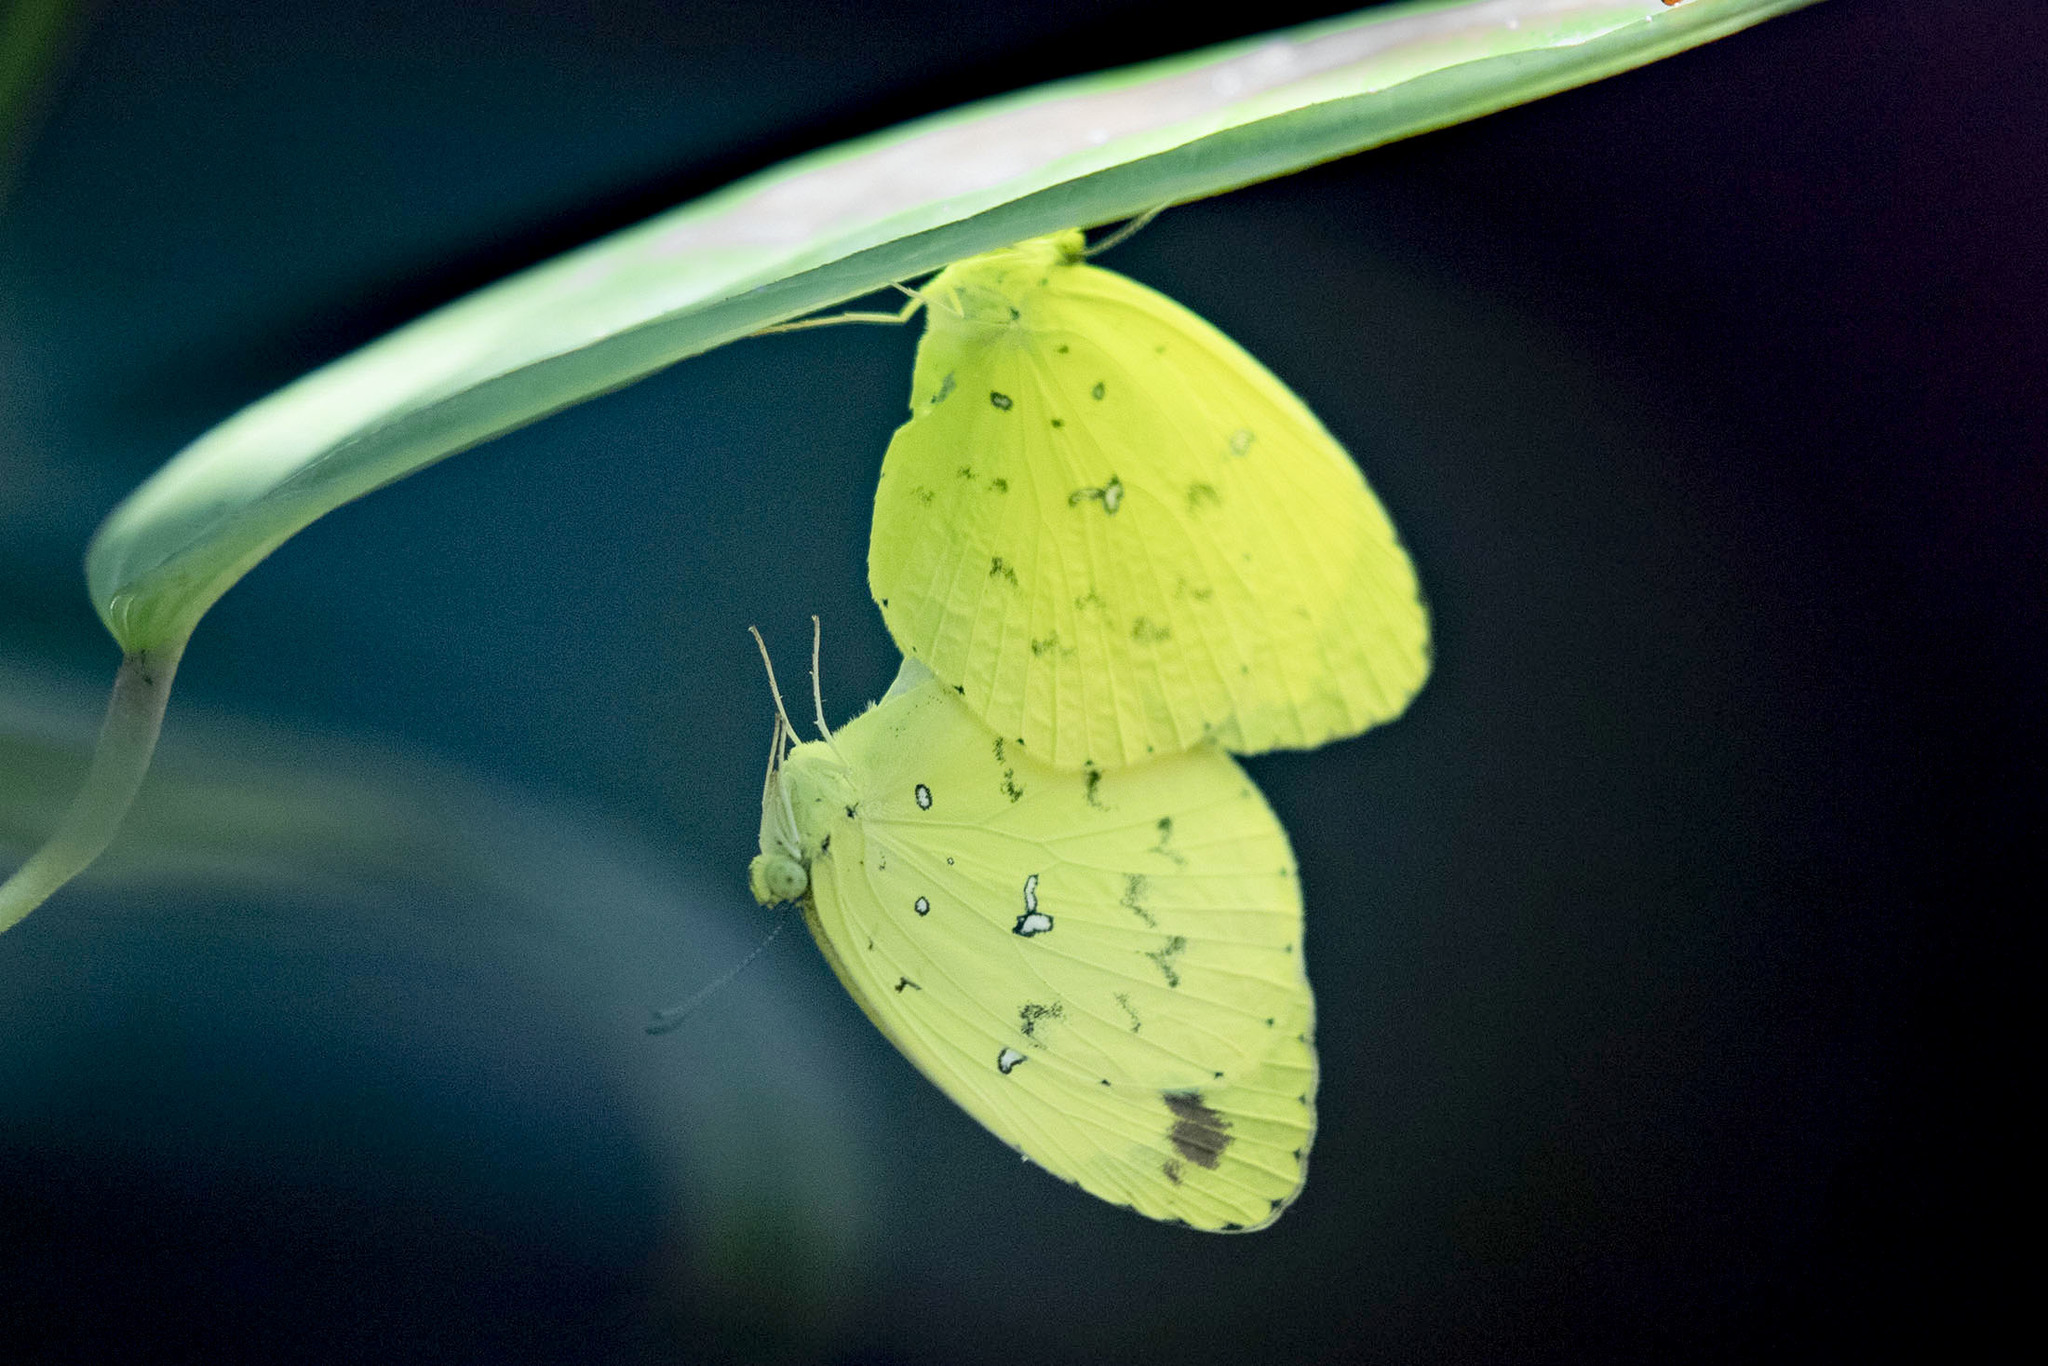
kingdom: Animalia
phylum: Arthropoda
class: Insecta
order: Lepidoptera
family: Pieridae
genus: Eurema
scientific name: Eurema floricola
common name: Malagasy grass yellow
